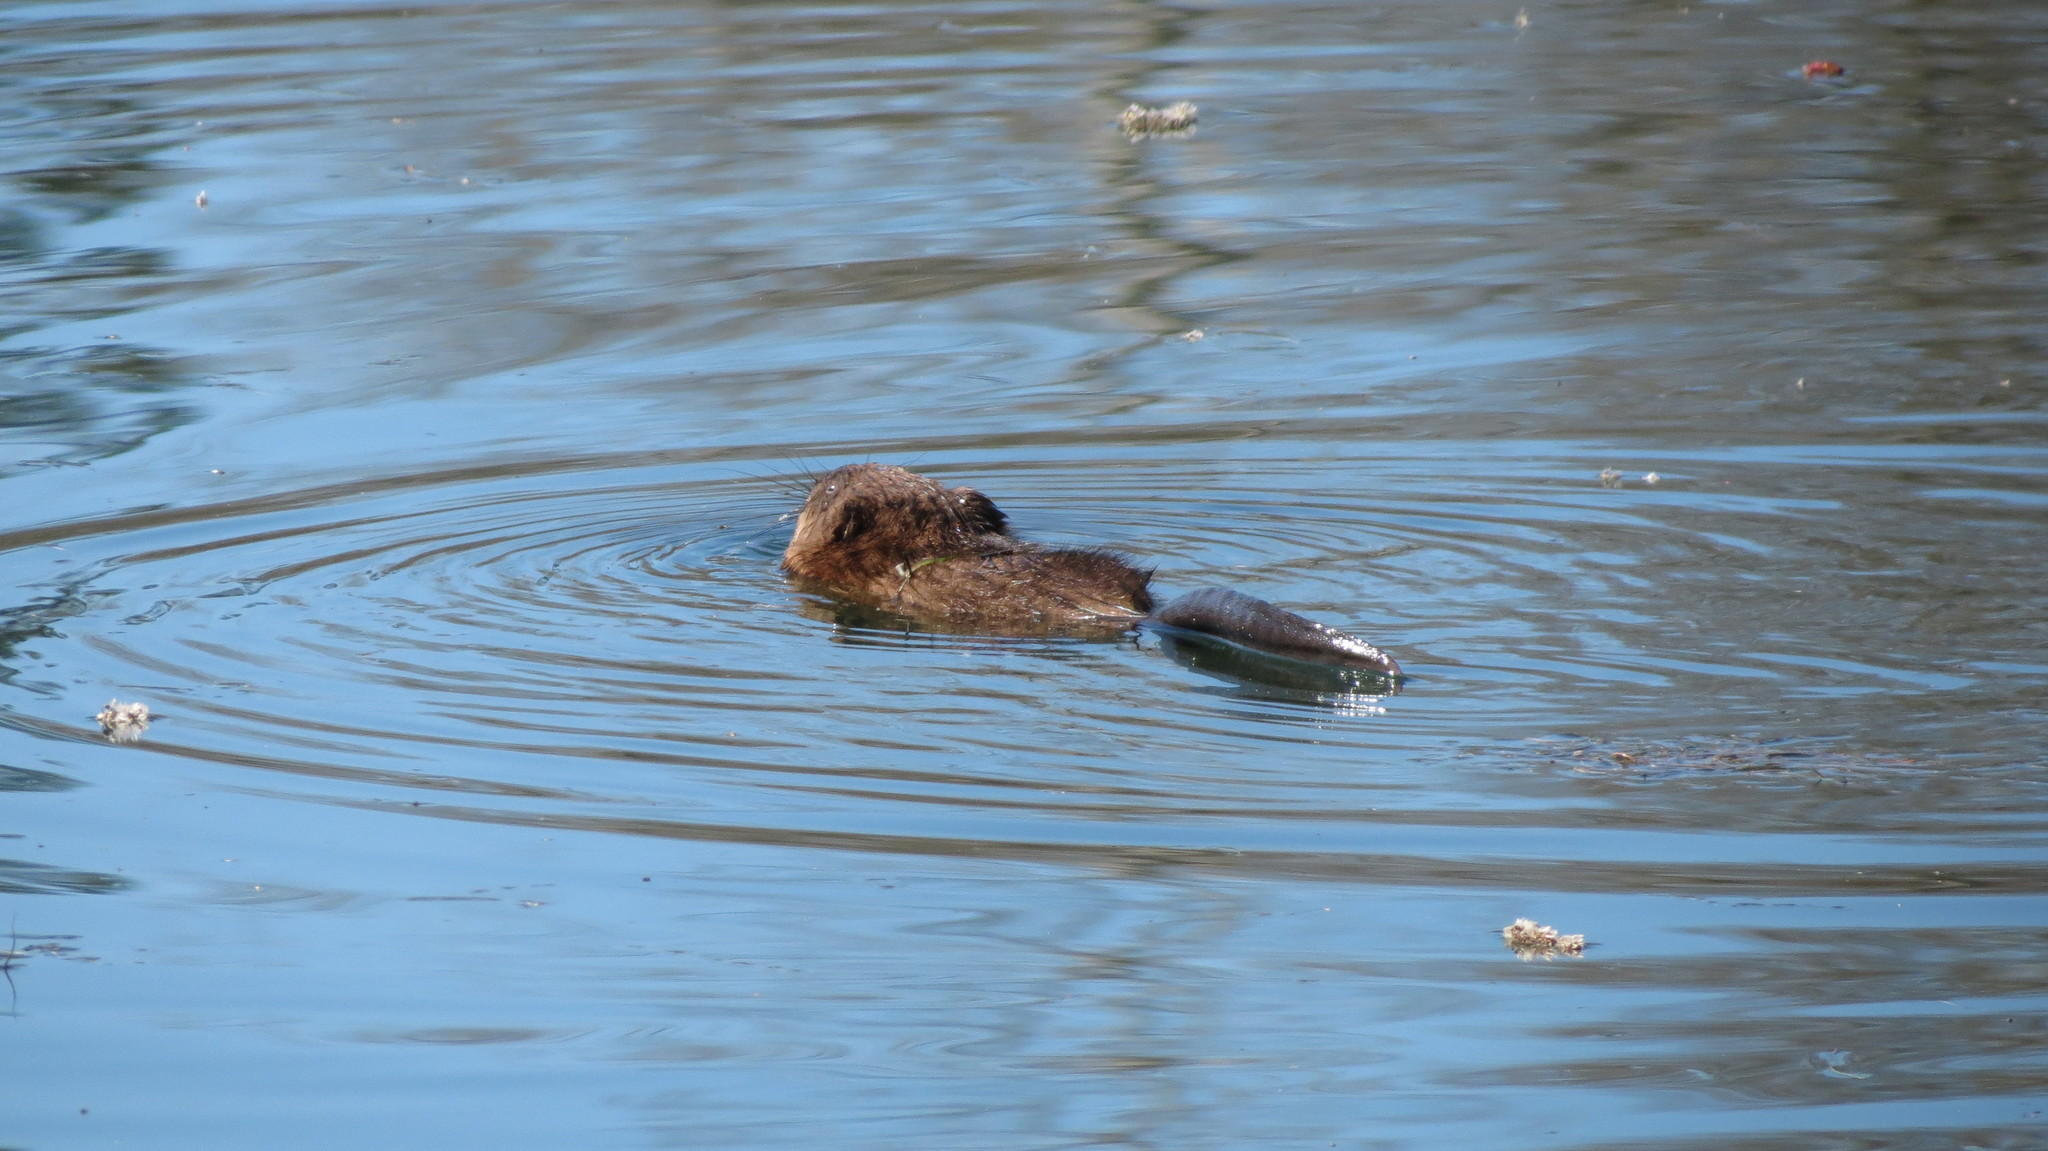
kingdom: Animalia
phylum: Chordata
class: Mammalia
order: Rodentia
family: Cricetidae
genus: Ondatra
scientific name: Ondatra zibethicus
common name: Muskrat
